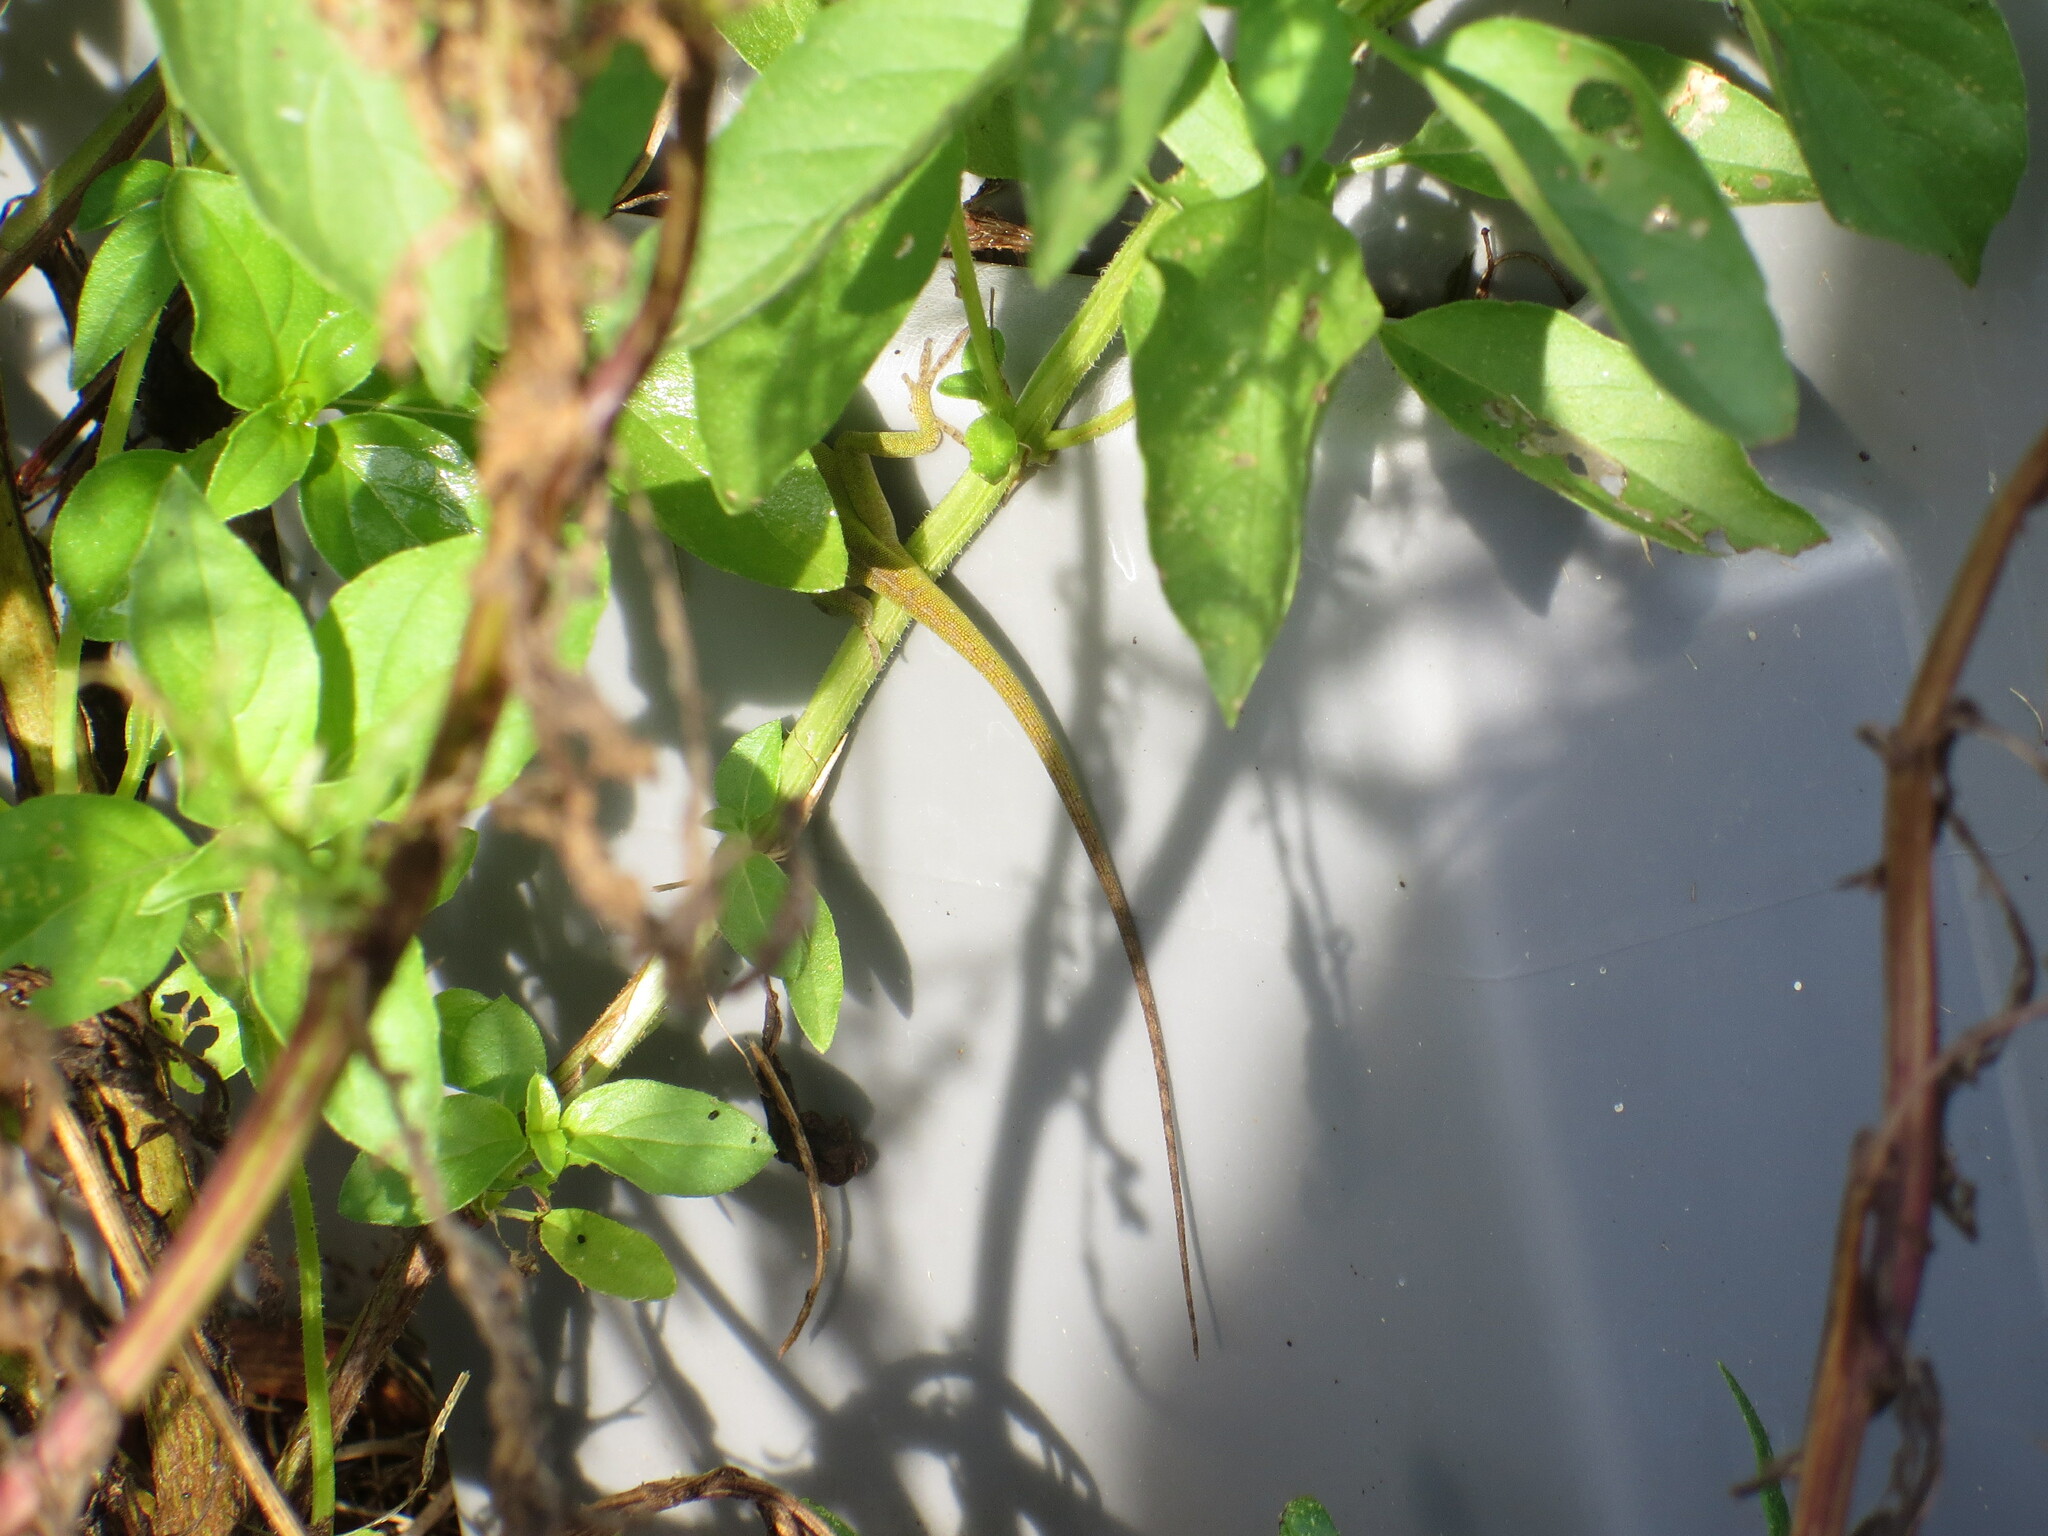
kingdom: Animalia
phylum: Chordata
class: Squamata
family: Dactyloidae
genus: Anolis
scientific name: Anolis carolinensis
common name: Green anole
